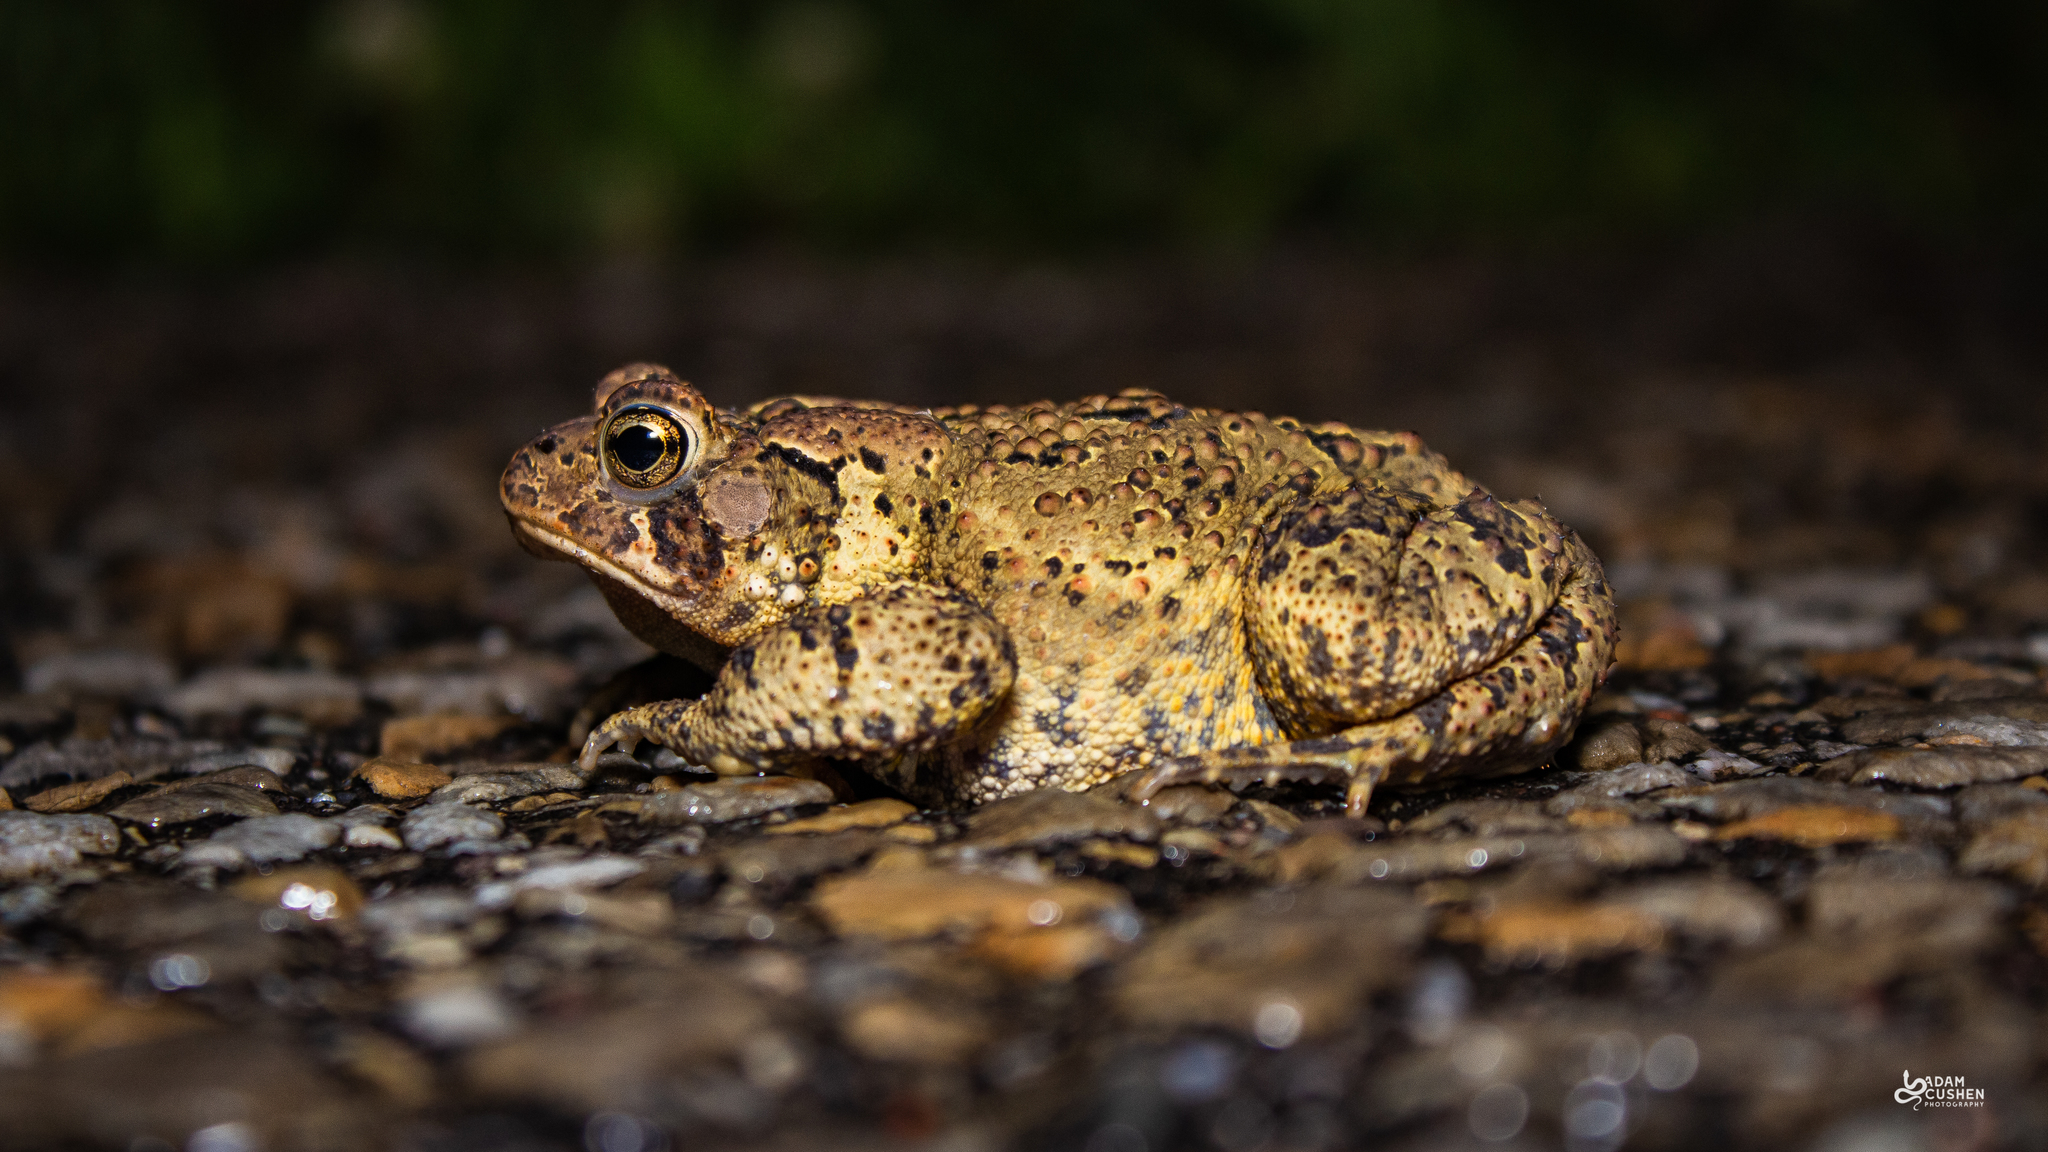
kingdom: Animalia
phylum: Chordata
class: Amphibia
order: Anura
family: Bufonidae
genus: Anaxyrus
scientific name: Anaxyrus americanus
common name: American toad
